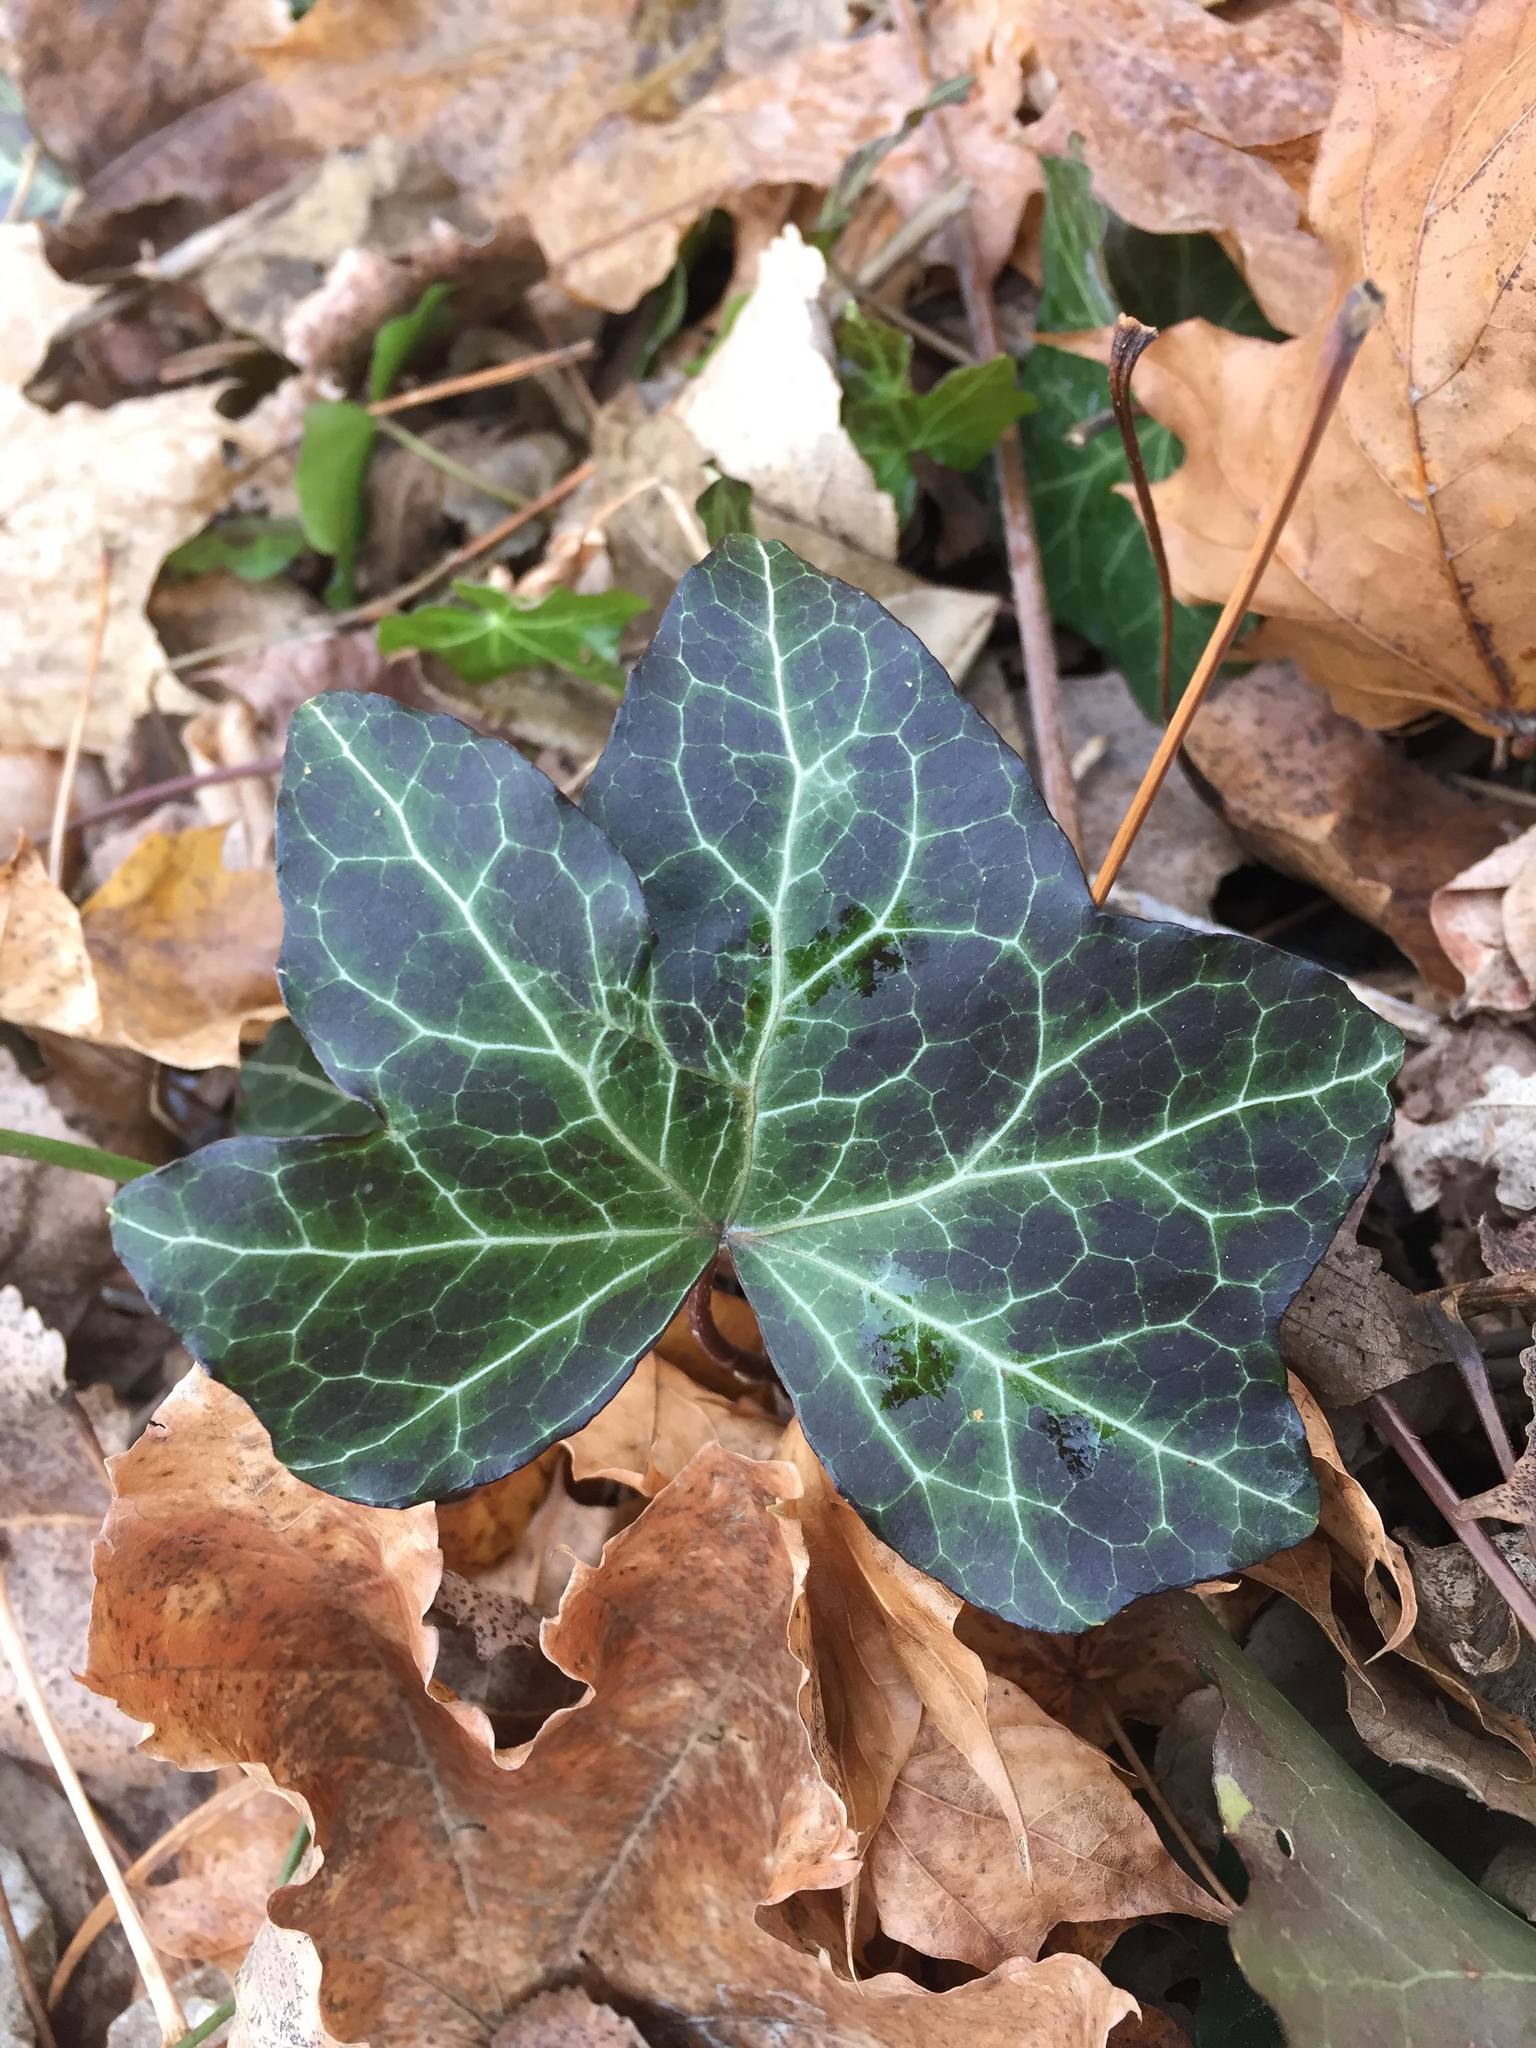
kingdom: Plantae
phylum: Tracheophyta
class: Magnoliopsida
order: Apiales
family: Araliaceae
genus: Hedera
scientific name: Hedera helix
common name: Ivy
